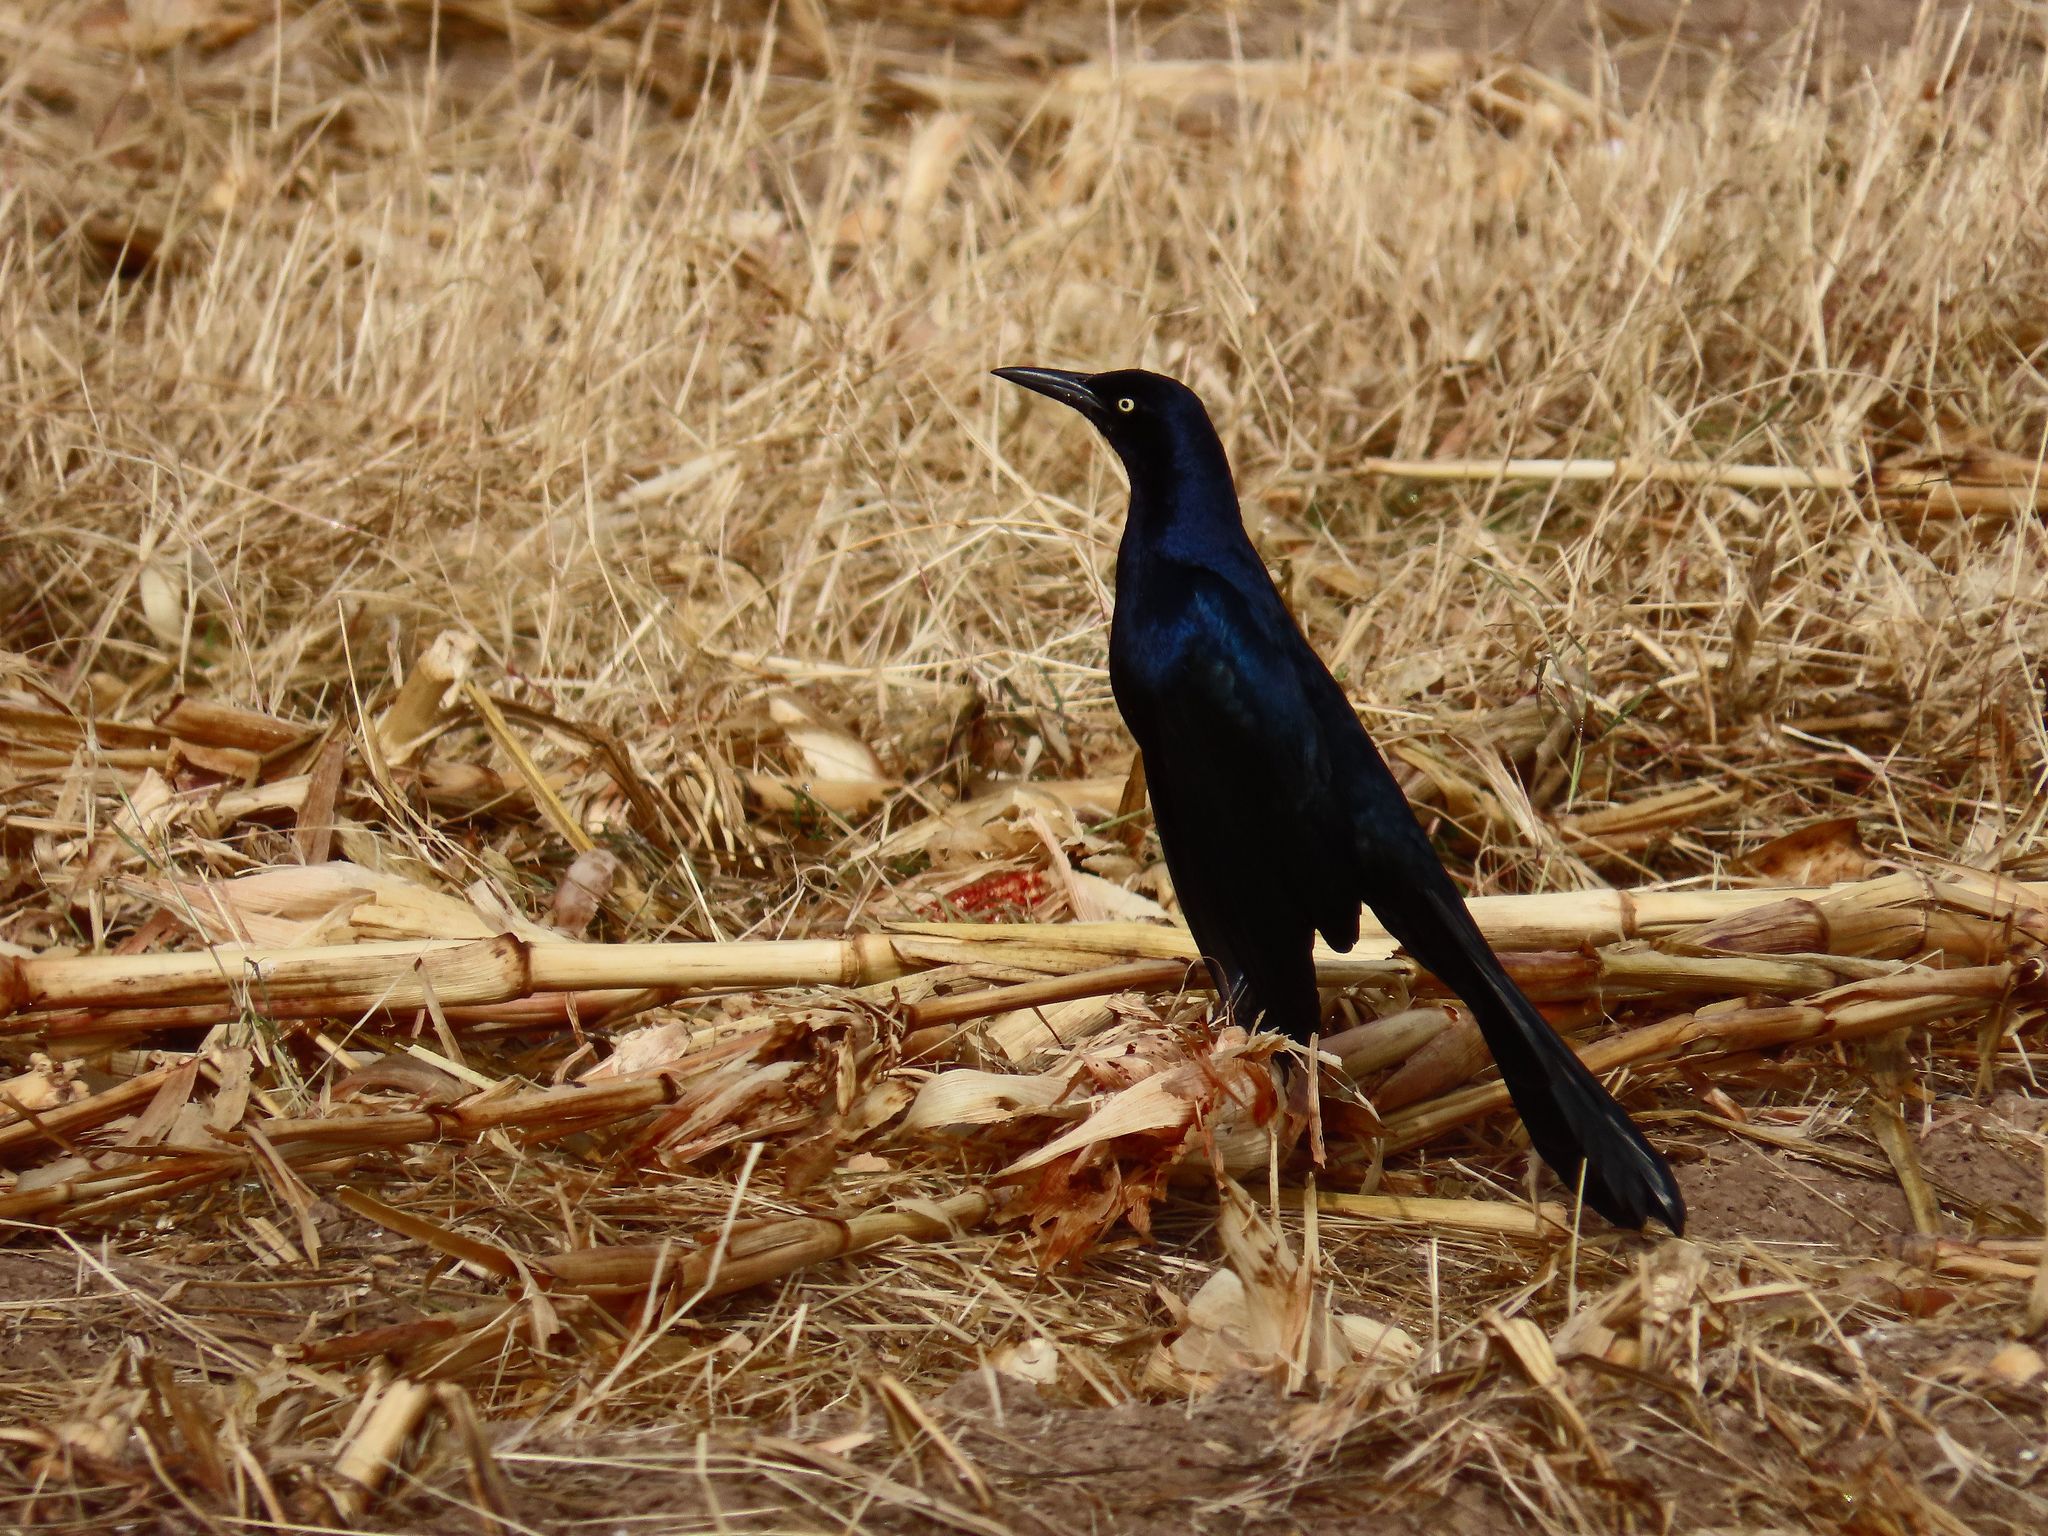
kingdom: Animalia
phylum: Chordata
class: Aves
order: Passeriformes
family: Icteridae
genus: Quiscalus
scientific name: Quiscalus mexicanus
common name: Great-tailed grackle
